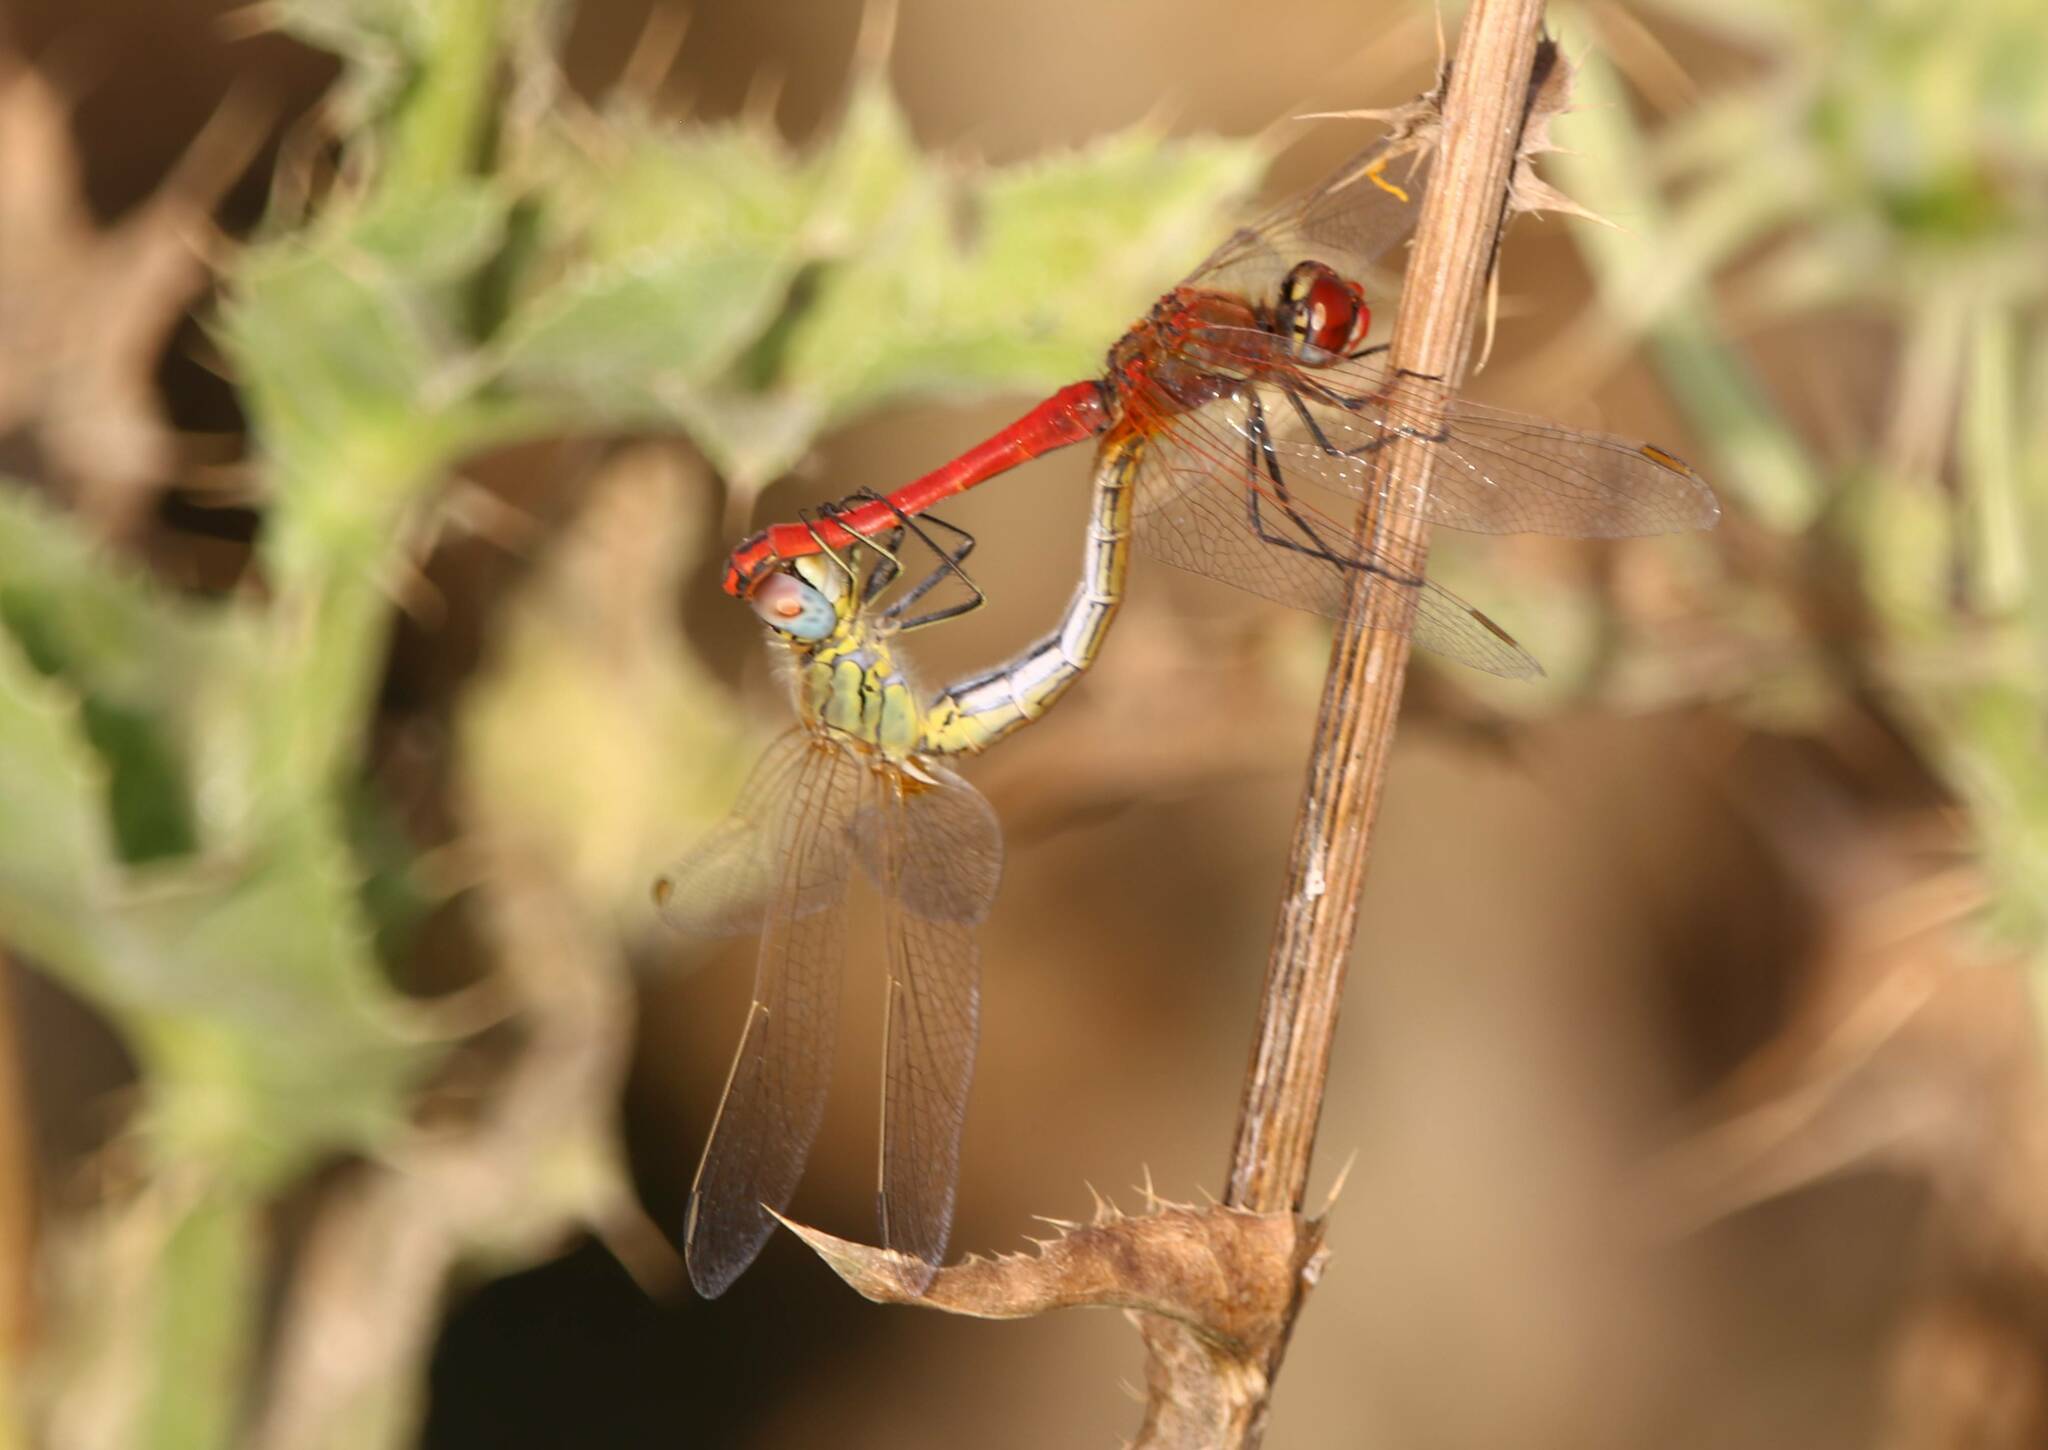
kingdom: Animalia
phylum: Arthropoda
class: Insecta
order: Odonata
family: Libellulidae
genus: Sympetrum
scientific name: Sympetrum fonscolombii
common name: Red-veined darter
